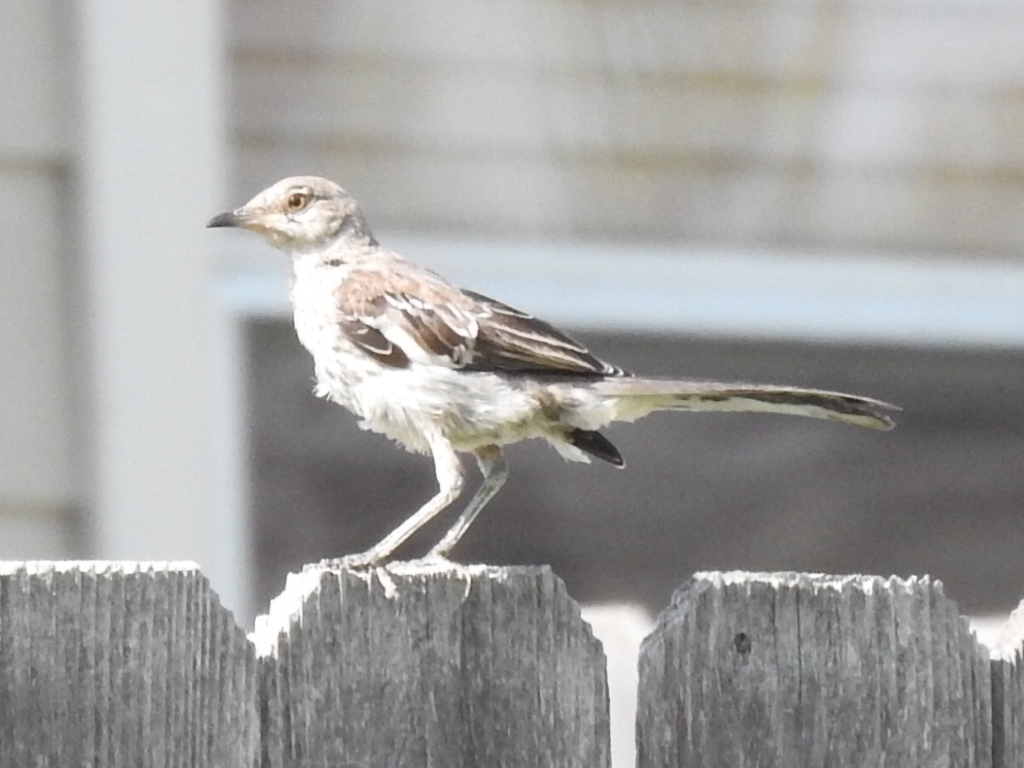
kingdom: Animalia
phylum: Chordata
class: Aves
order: Passeriformes
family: Mimidae
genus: Mimus
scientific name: Mimus polyglottos
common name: Northern mockingbird
